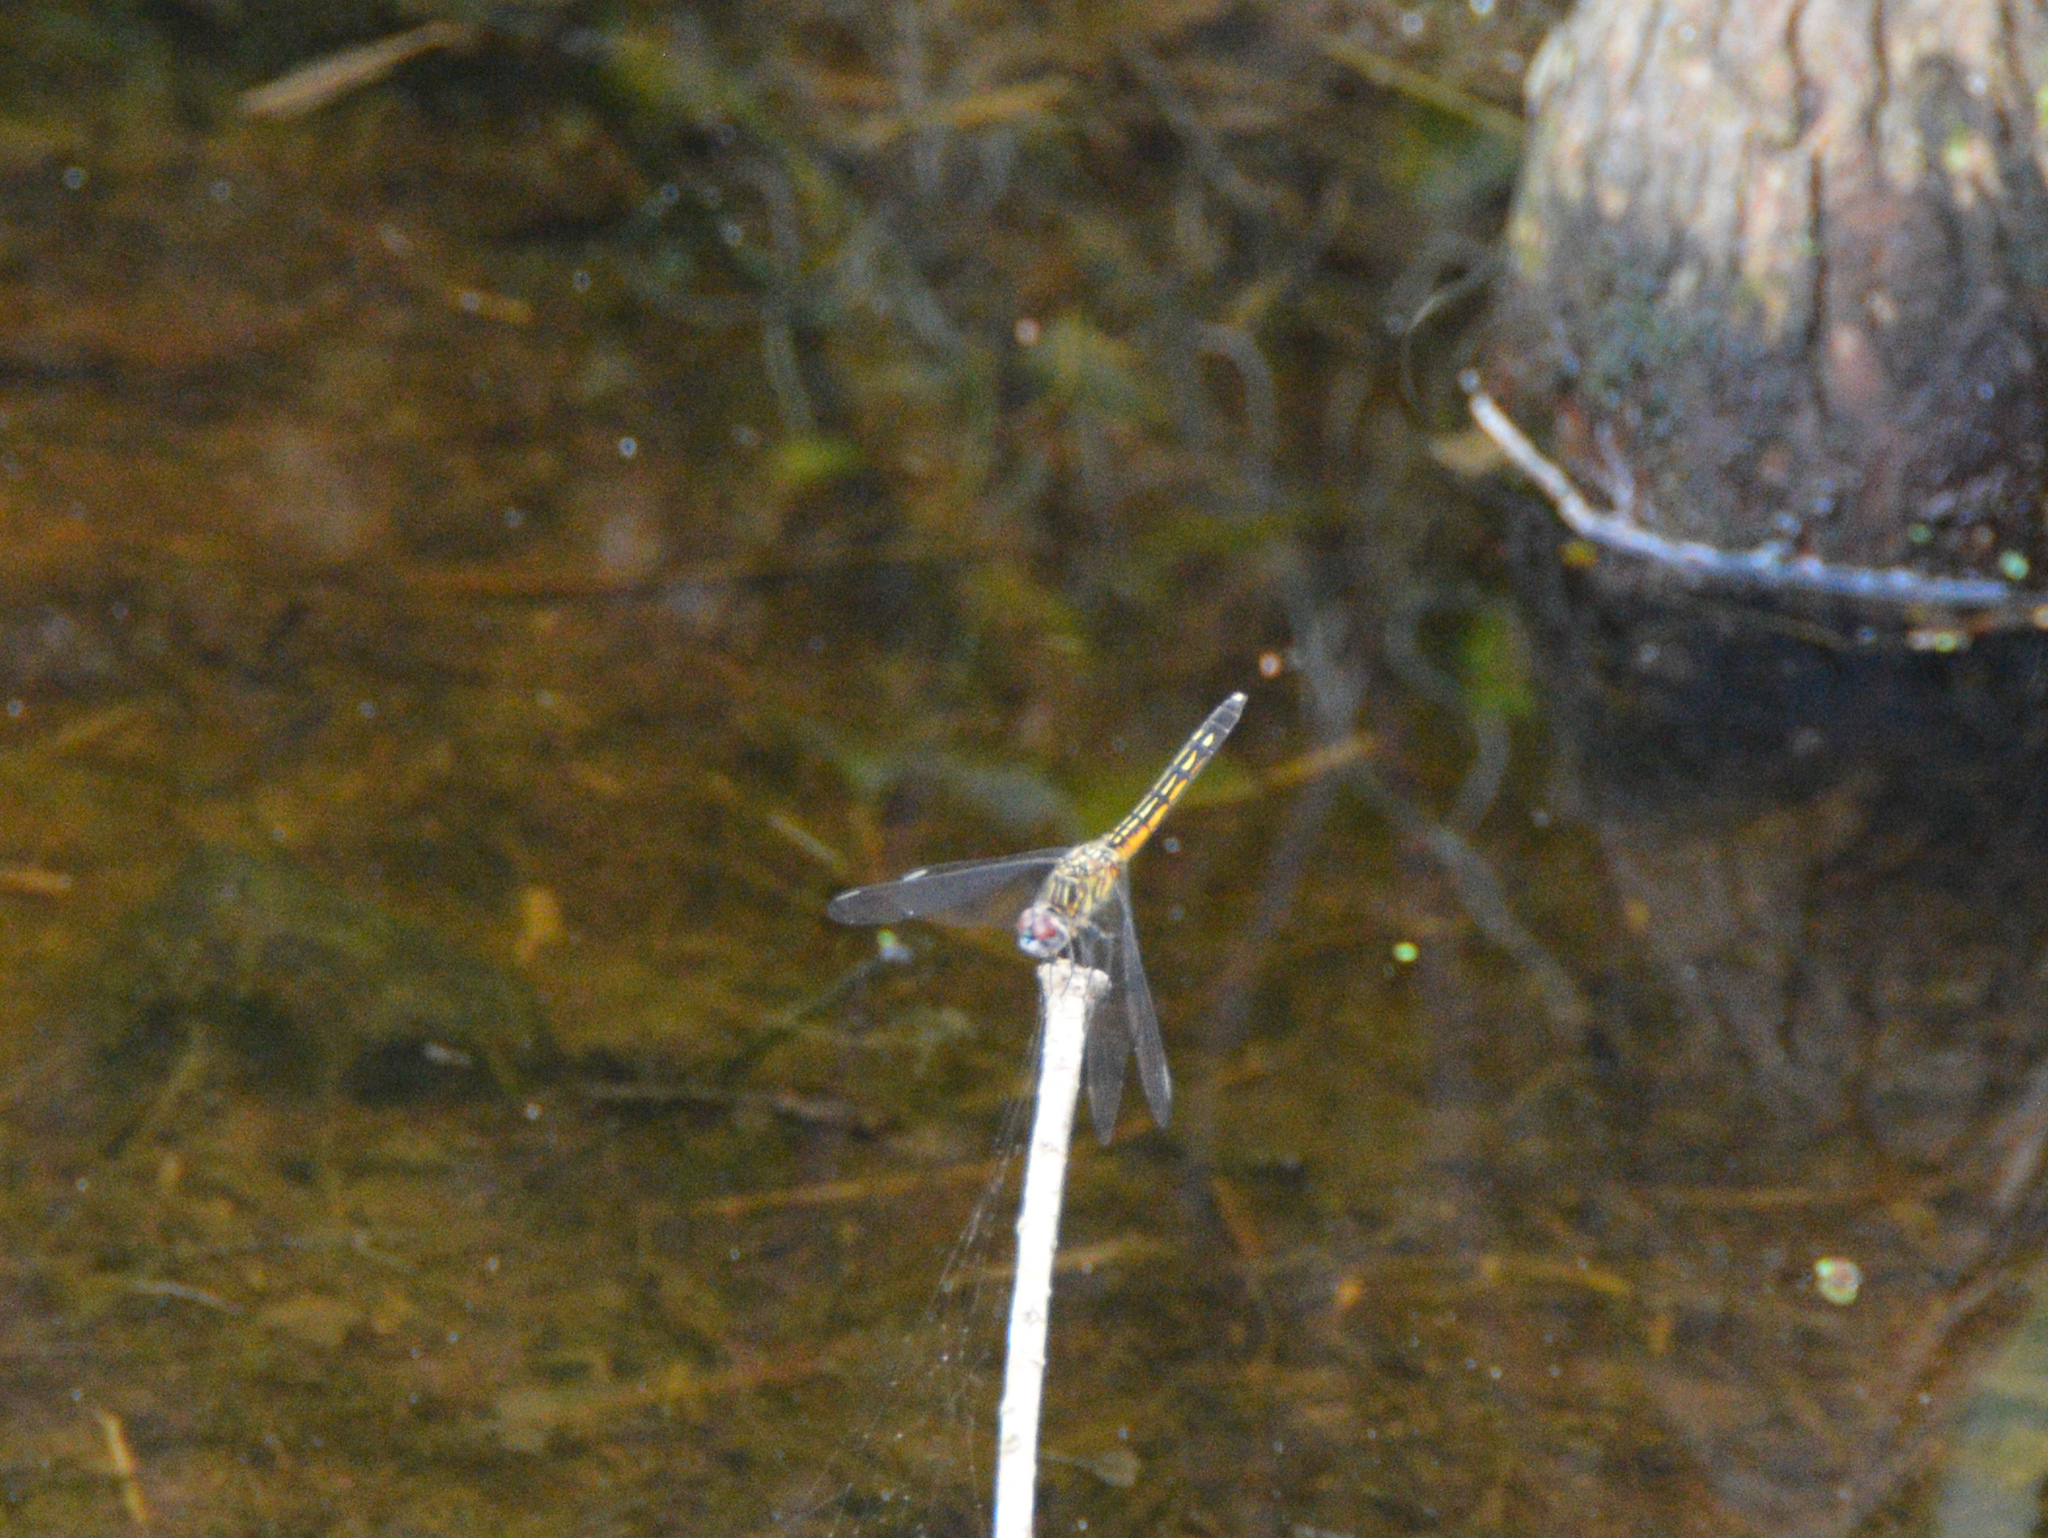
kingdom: Animalia
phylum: Arthropoda
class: Insecta
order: Odonata
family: Libellulidae
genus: Pachydiplax
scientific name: Pachydiplax longipennis
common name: Blue dasher
